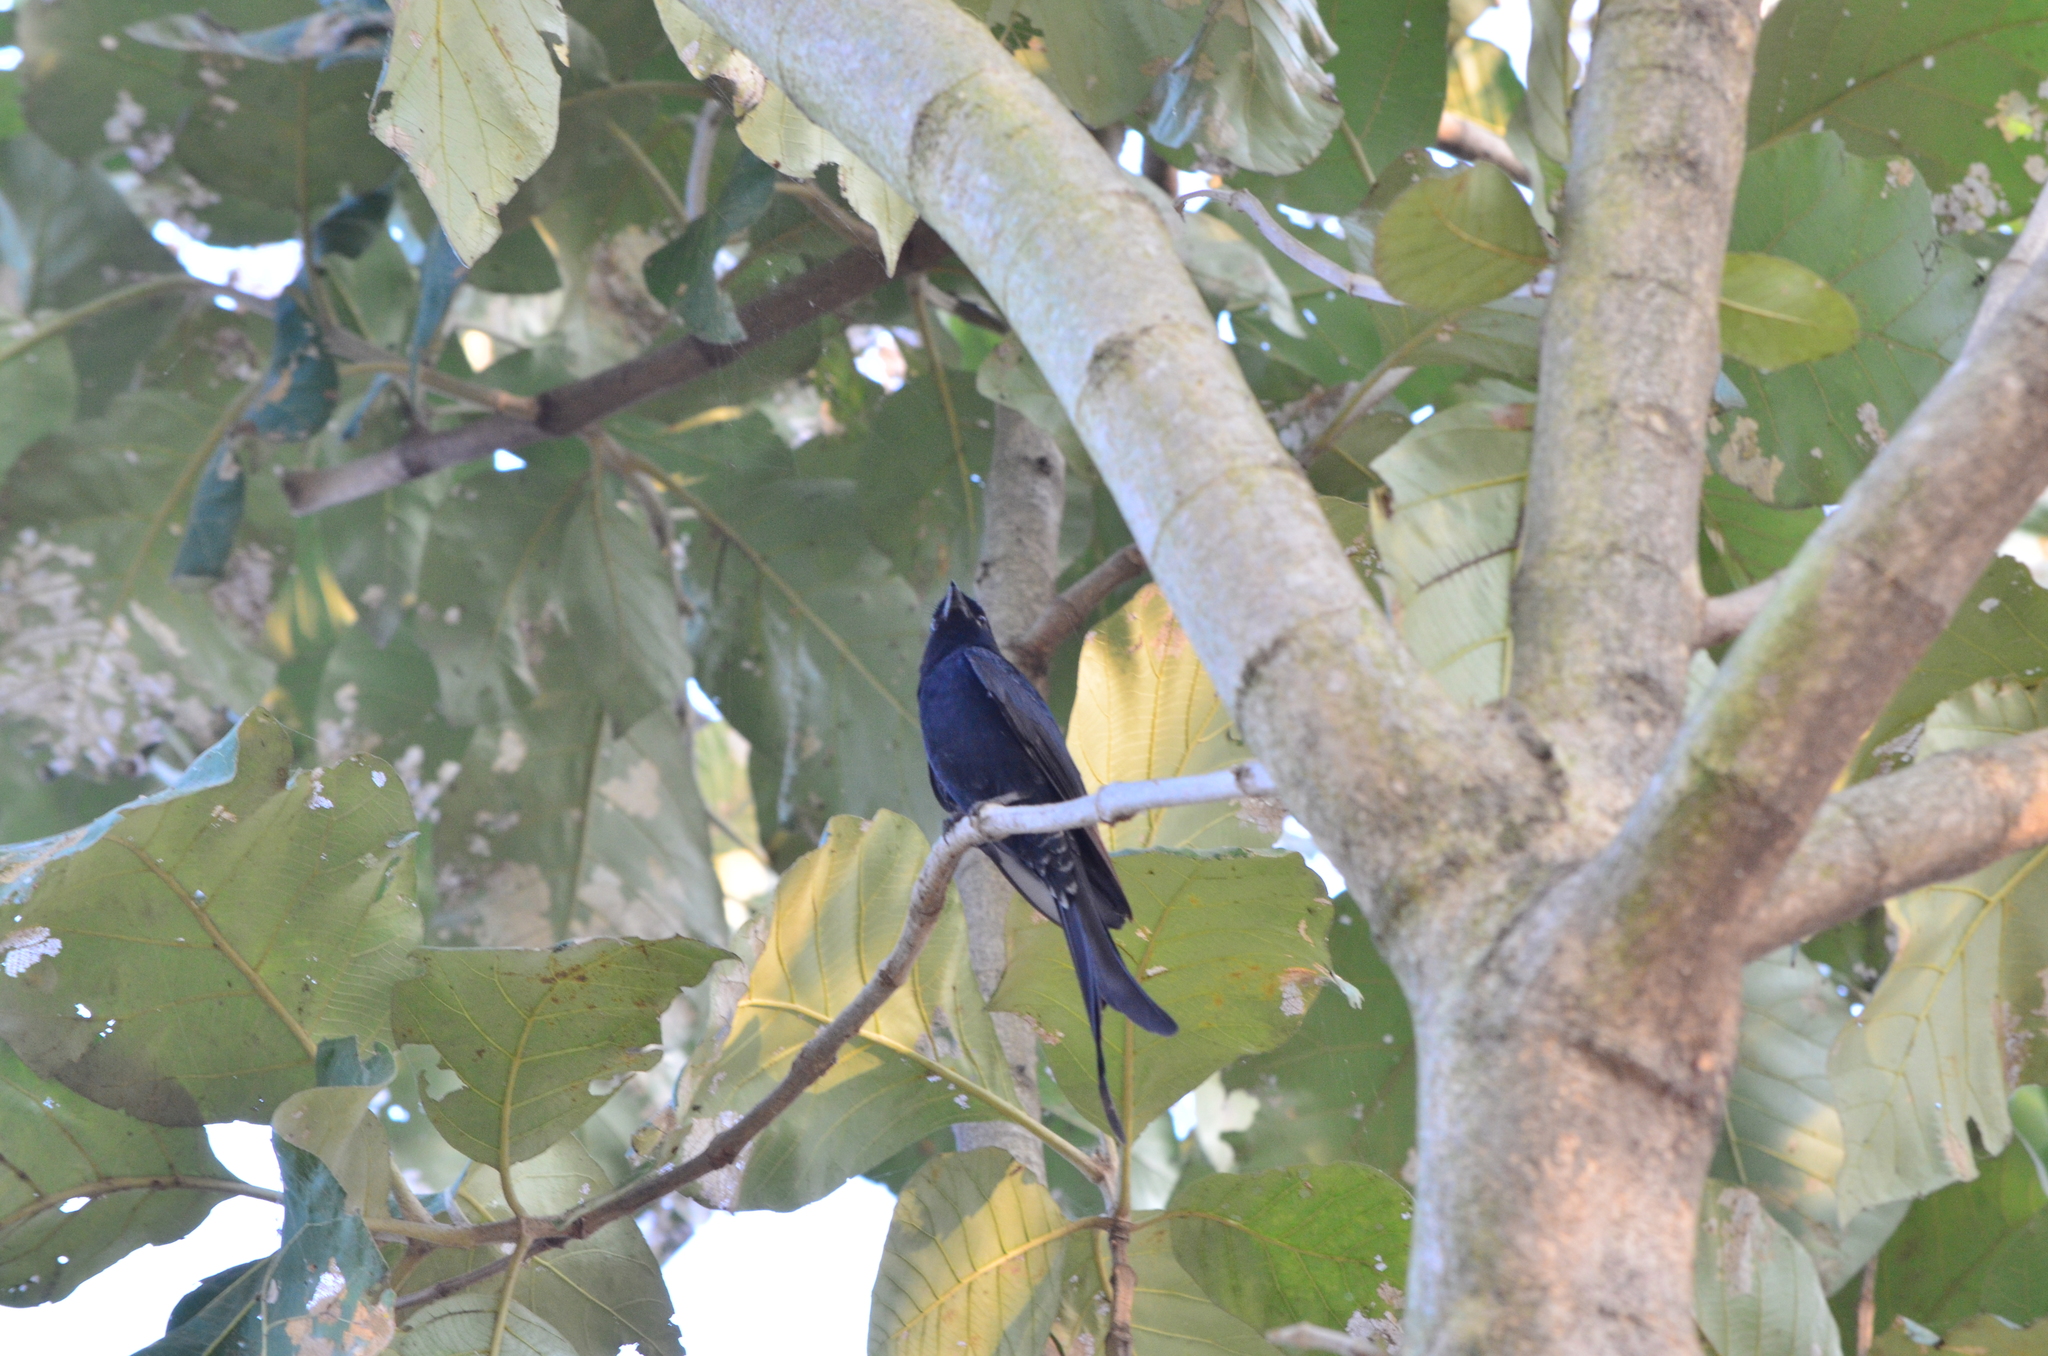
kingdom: Animalia
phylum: Chordata
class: Aves
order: Passeriformes
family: Dicruridae
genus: Dicrurus
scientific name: Dicrurus macrocercus
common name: Black drongo
